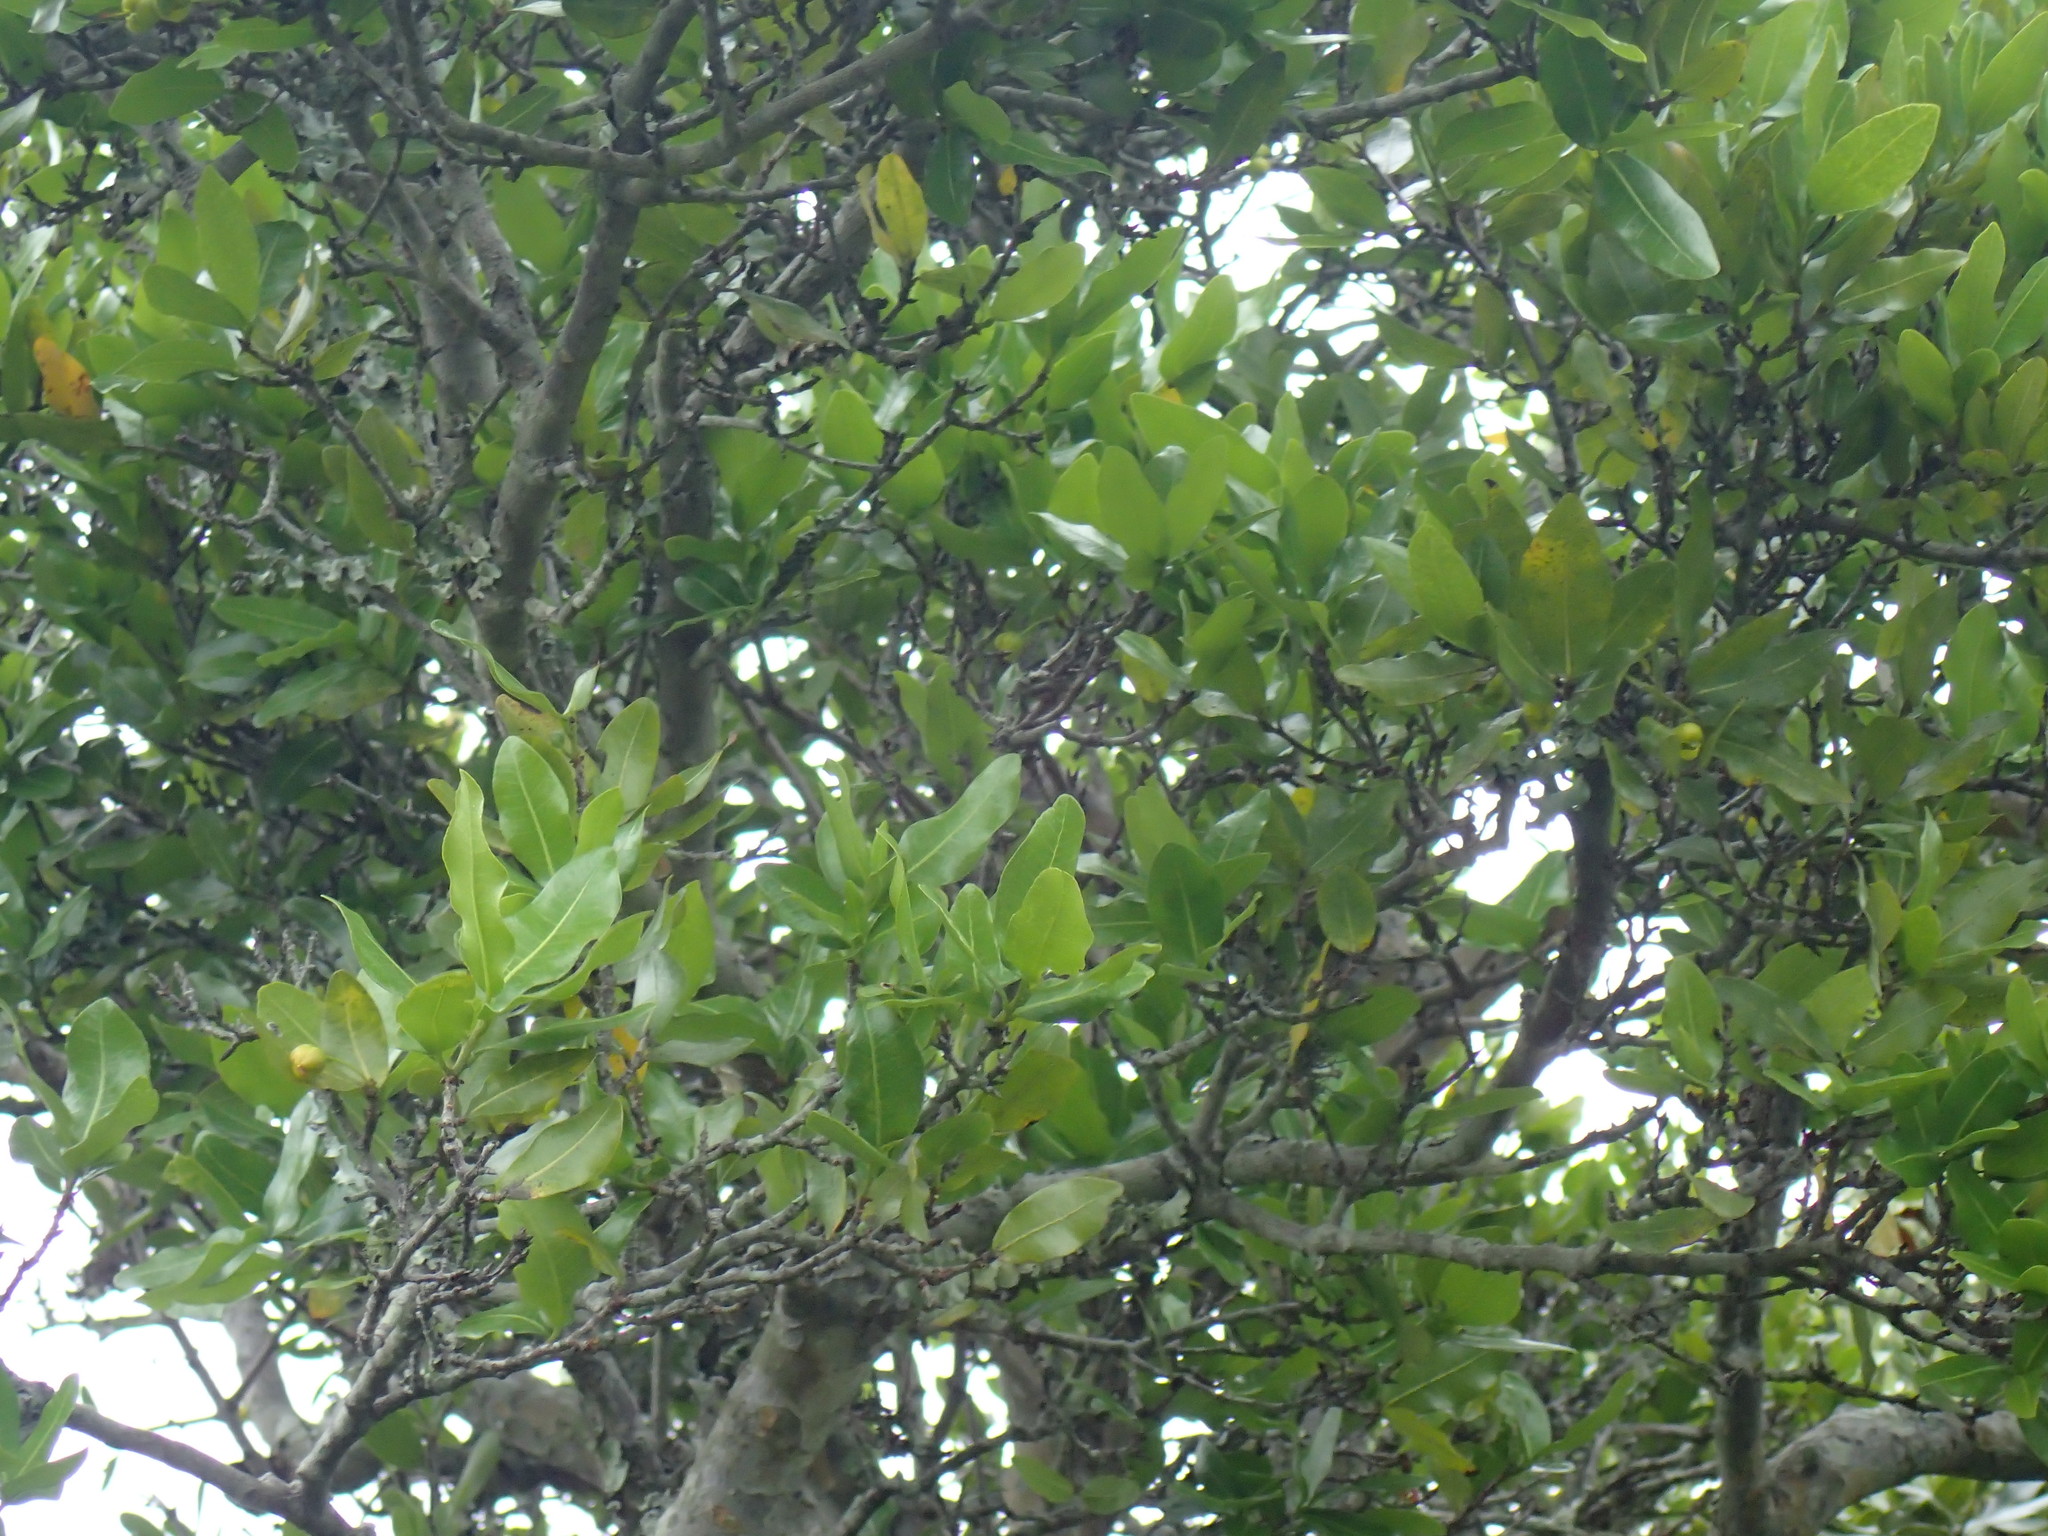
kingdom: Plantae
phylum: Tracheophyta
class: Magnoliopsida
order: Malpighiales
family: Ochnaceae
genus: Ochna
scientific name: Ochna arborea
